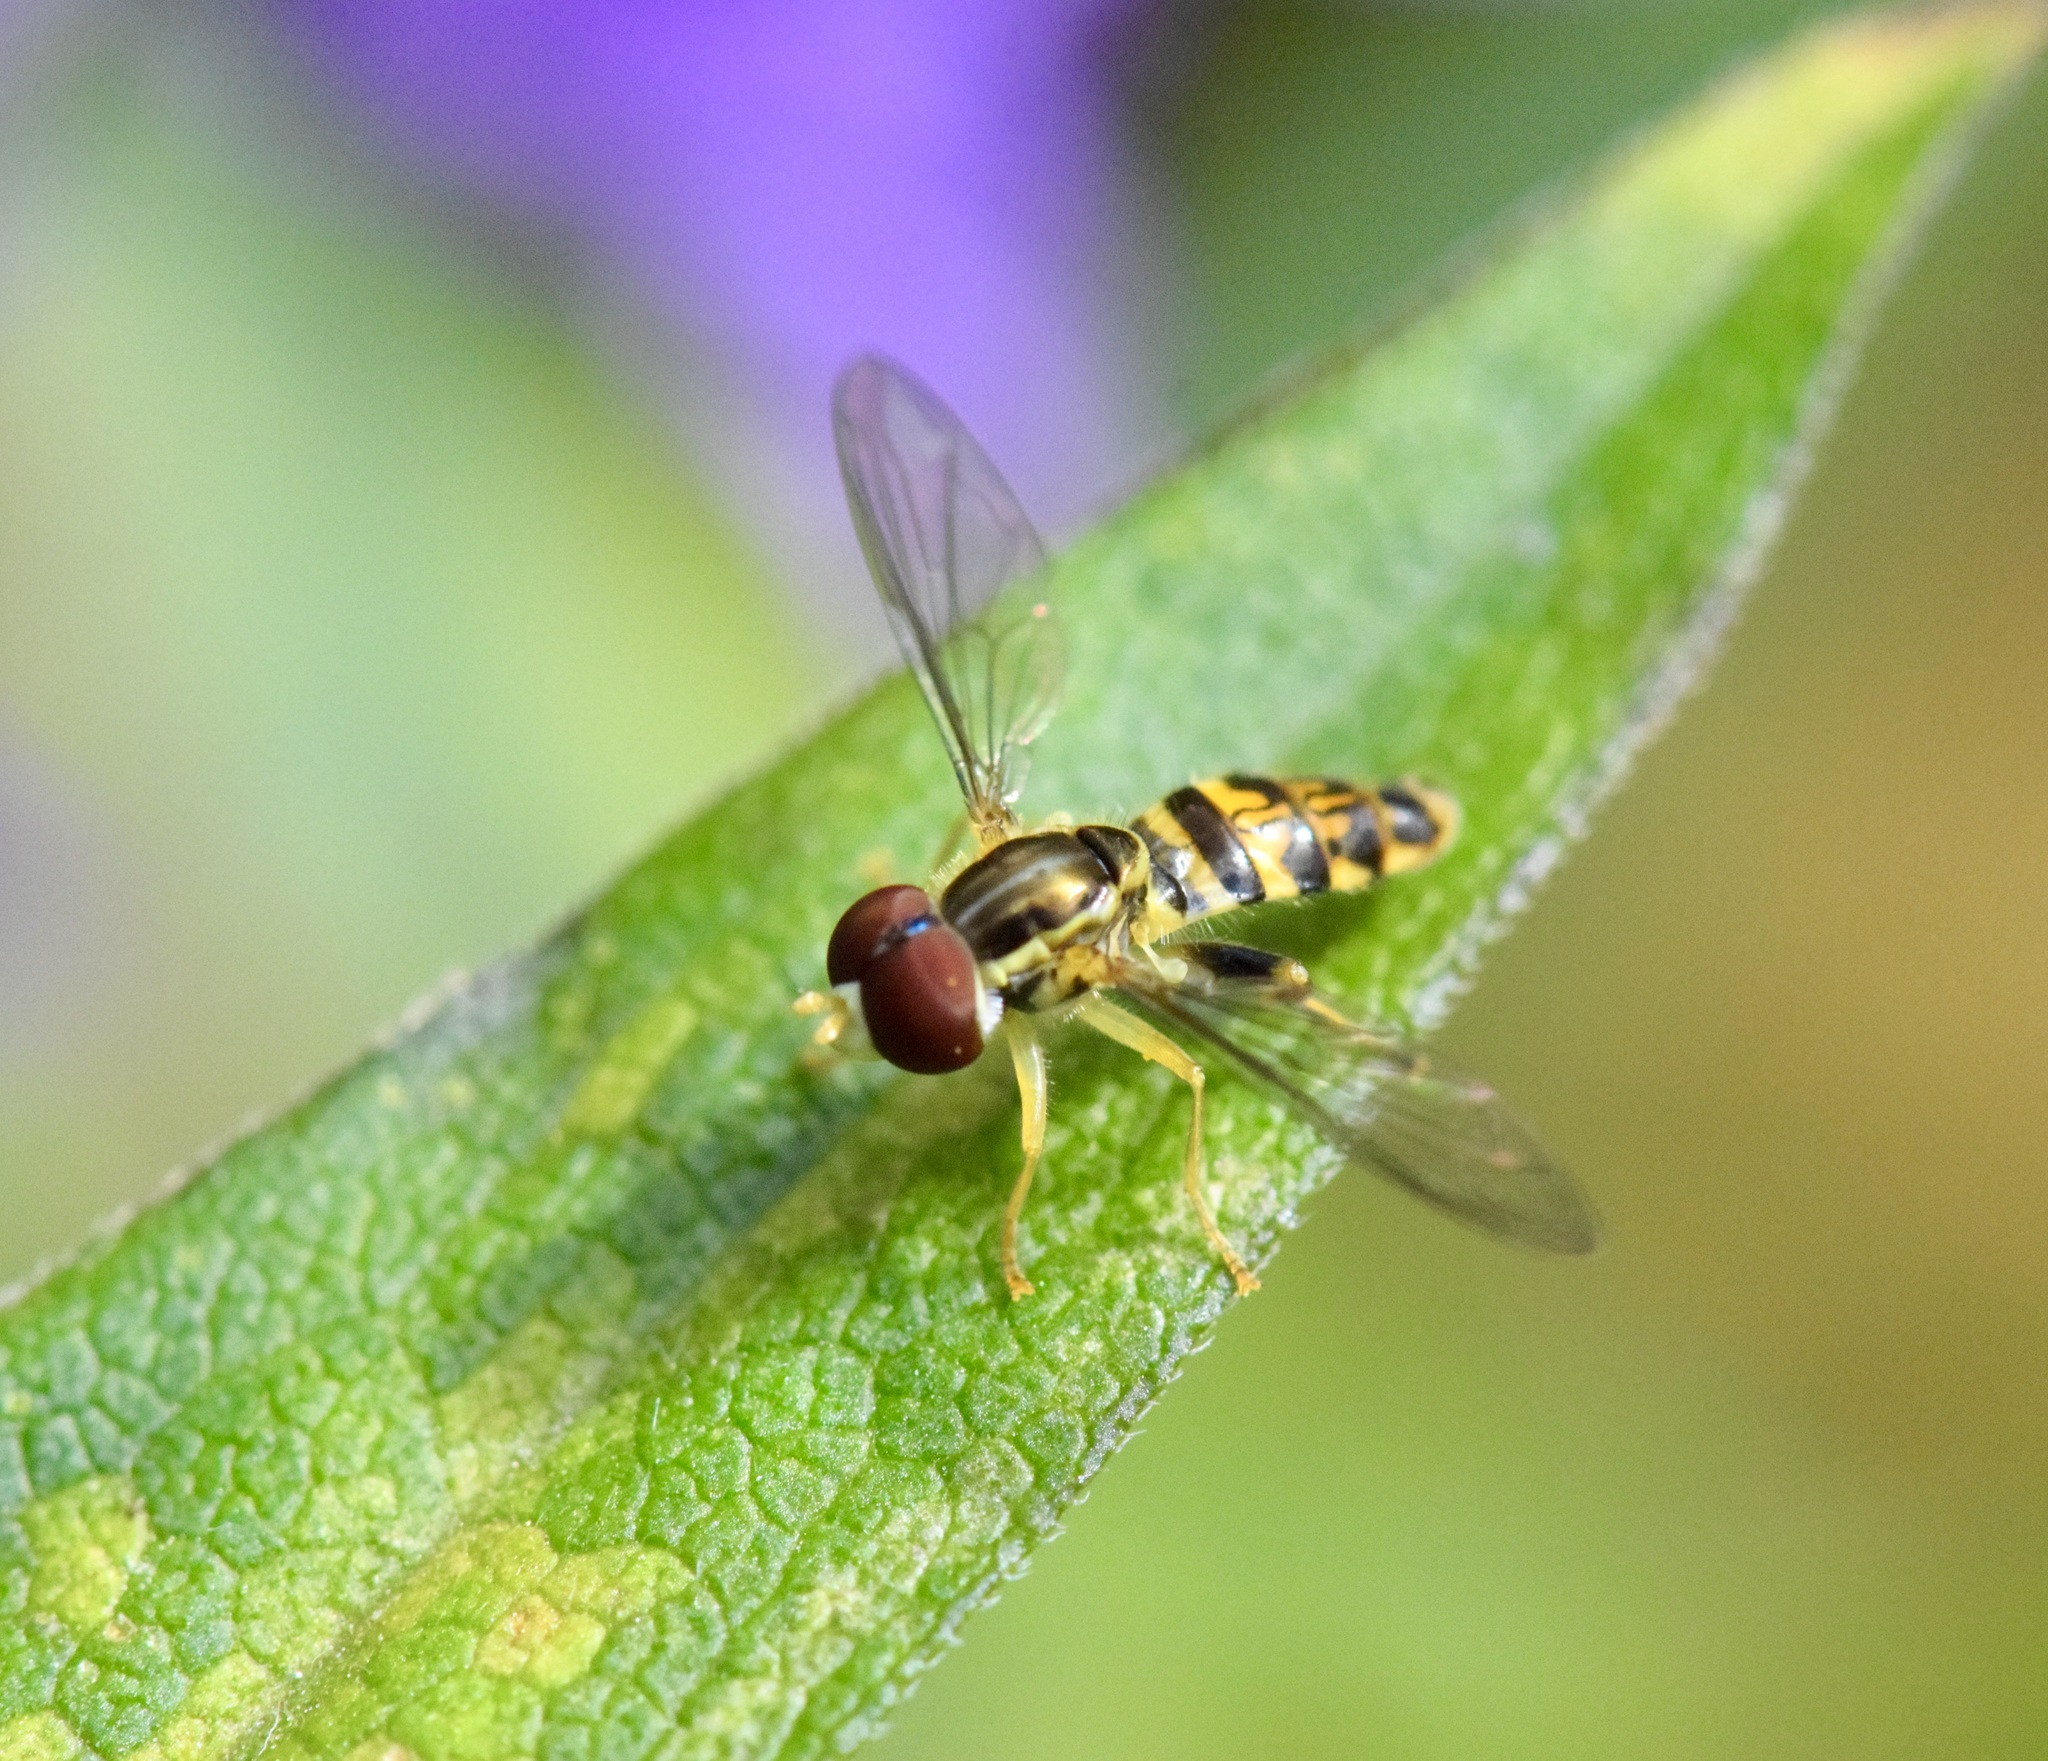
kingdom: Animalia
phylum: Arthropoda
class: Insecta
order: Diptera
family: Syrphidae
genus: Toxomerus
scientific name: Toxomerus geminatus
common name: Eastern calligrapher
